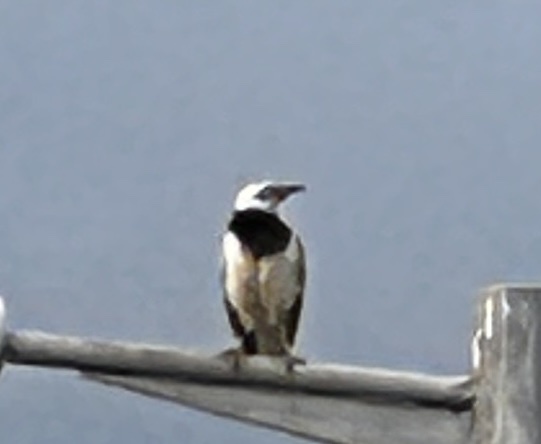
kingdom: Animalia
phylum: Chordata
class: Aves
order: Passeriformes
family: Sturnidae
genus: Gracupica
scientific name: Gracupica nigricollis
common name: Black-collared starling
